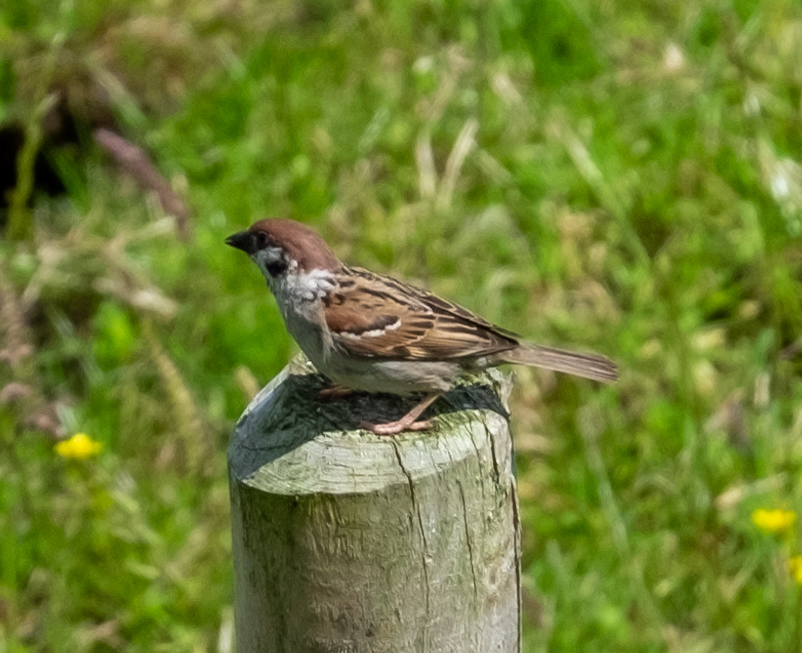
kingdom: Animalia
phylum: Chordata
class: Aves
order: Passeriformes
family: Passeridae
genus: Passer
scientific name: Passer montanus
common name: Eurasian tree sparrow
